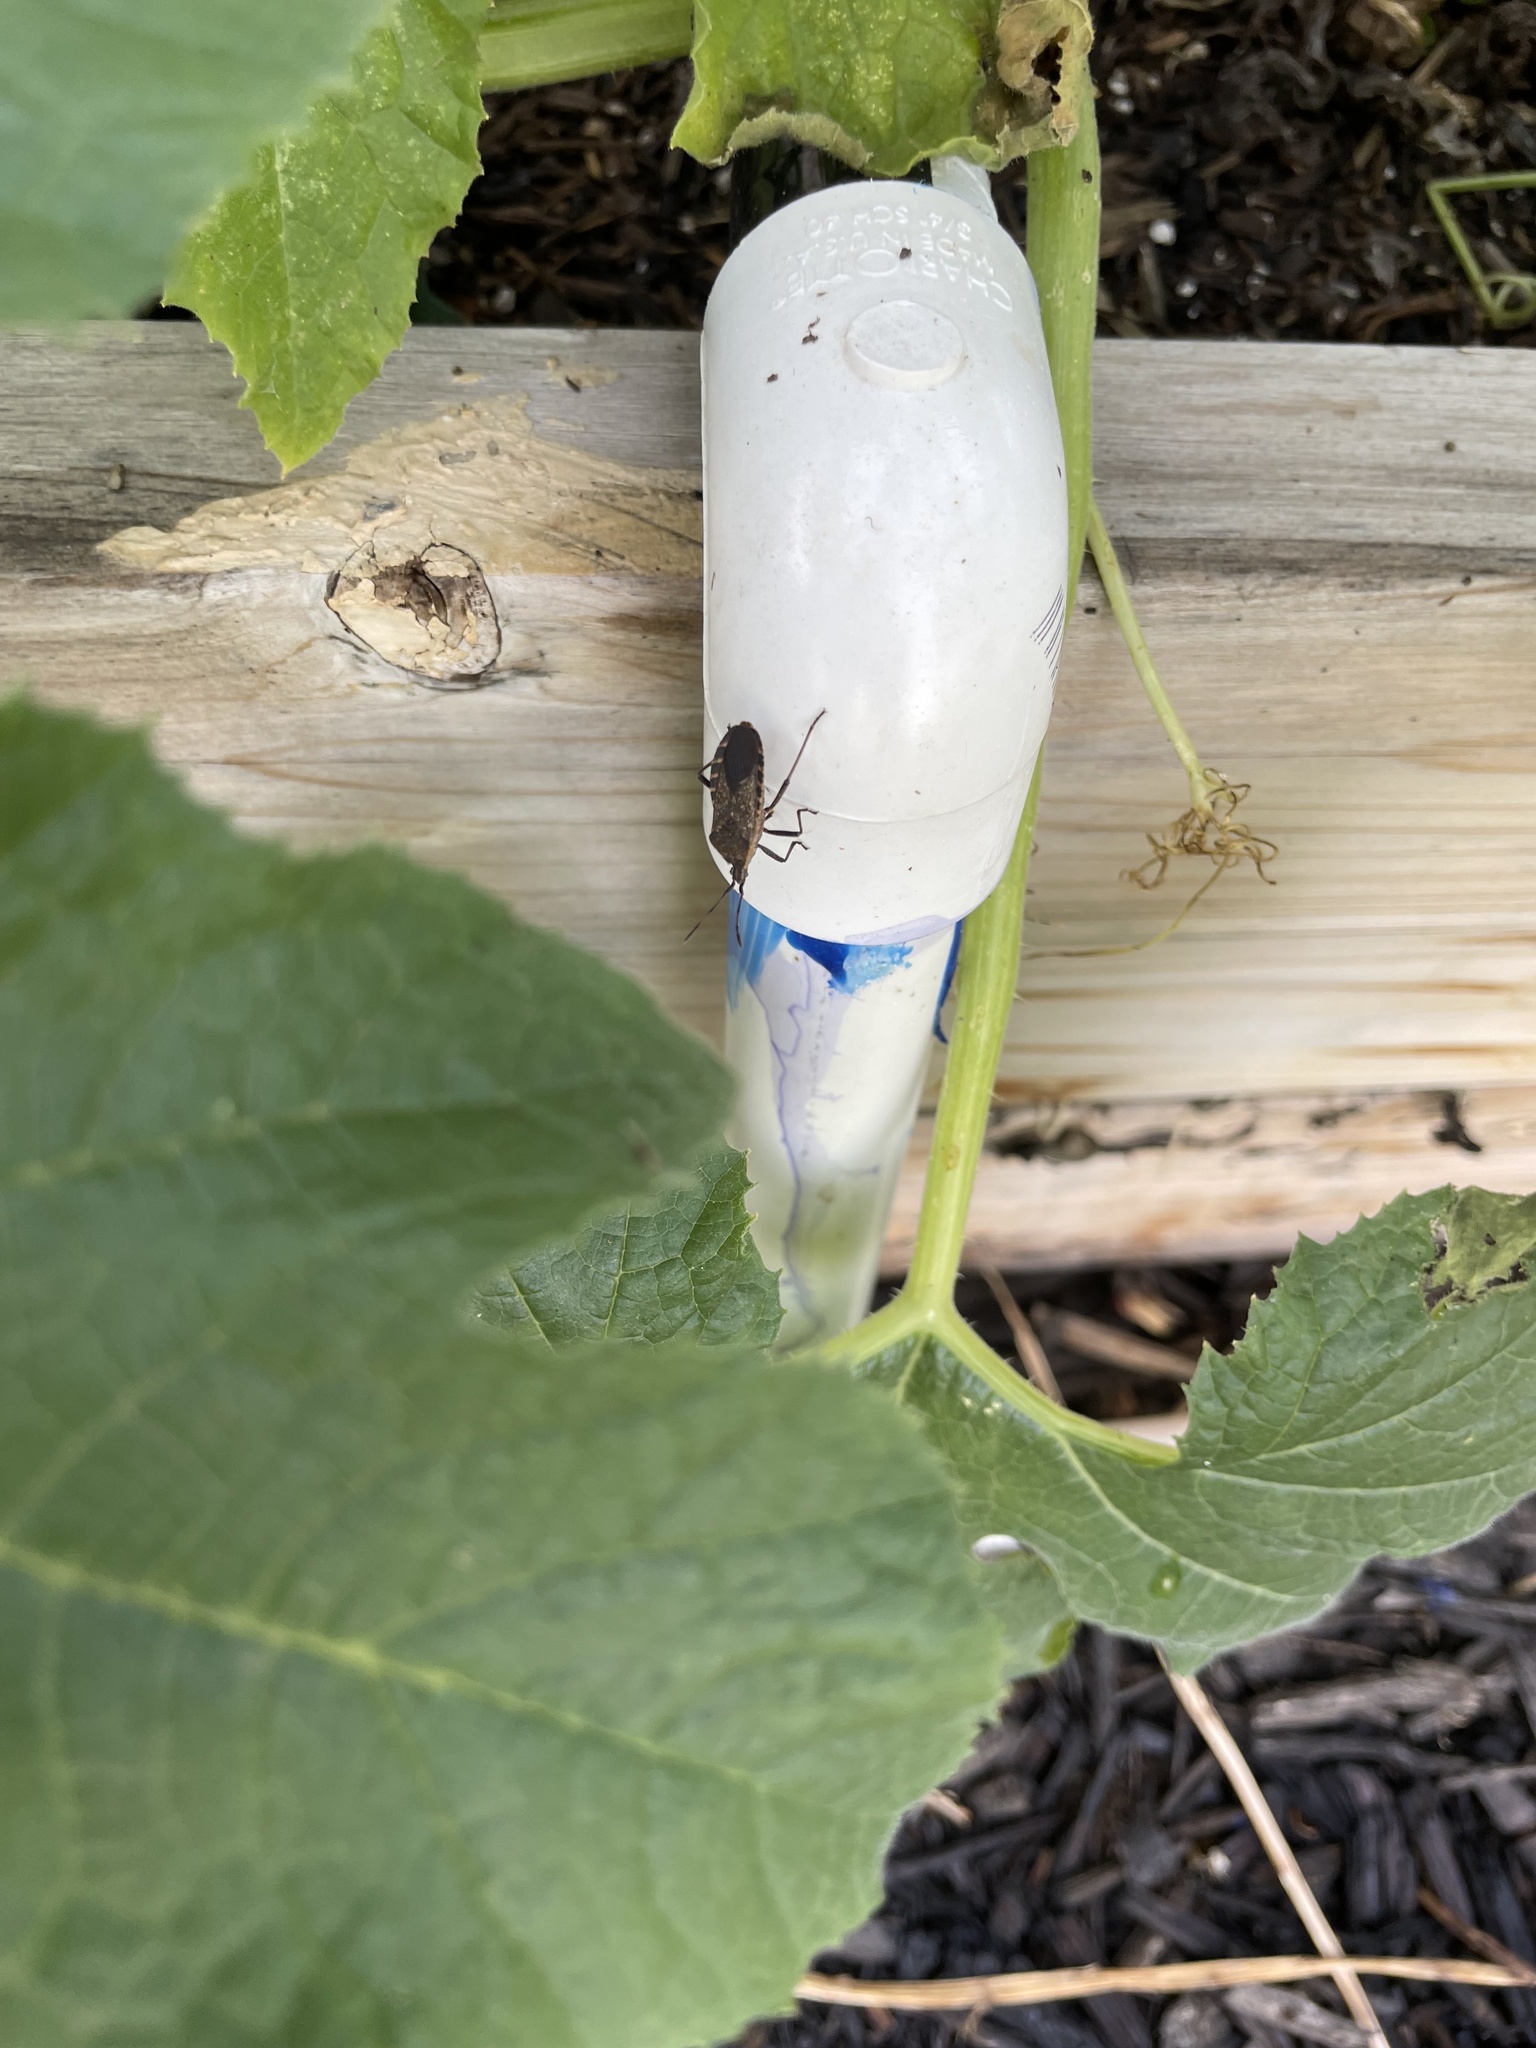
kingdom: Animalia
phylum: Arthropoda
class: Insecta
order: Hemiptera
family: Coreidae
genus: Anasa
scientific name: Anasa tristis
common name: Squash bug
